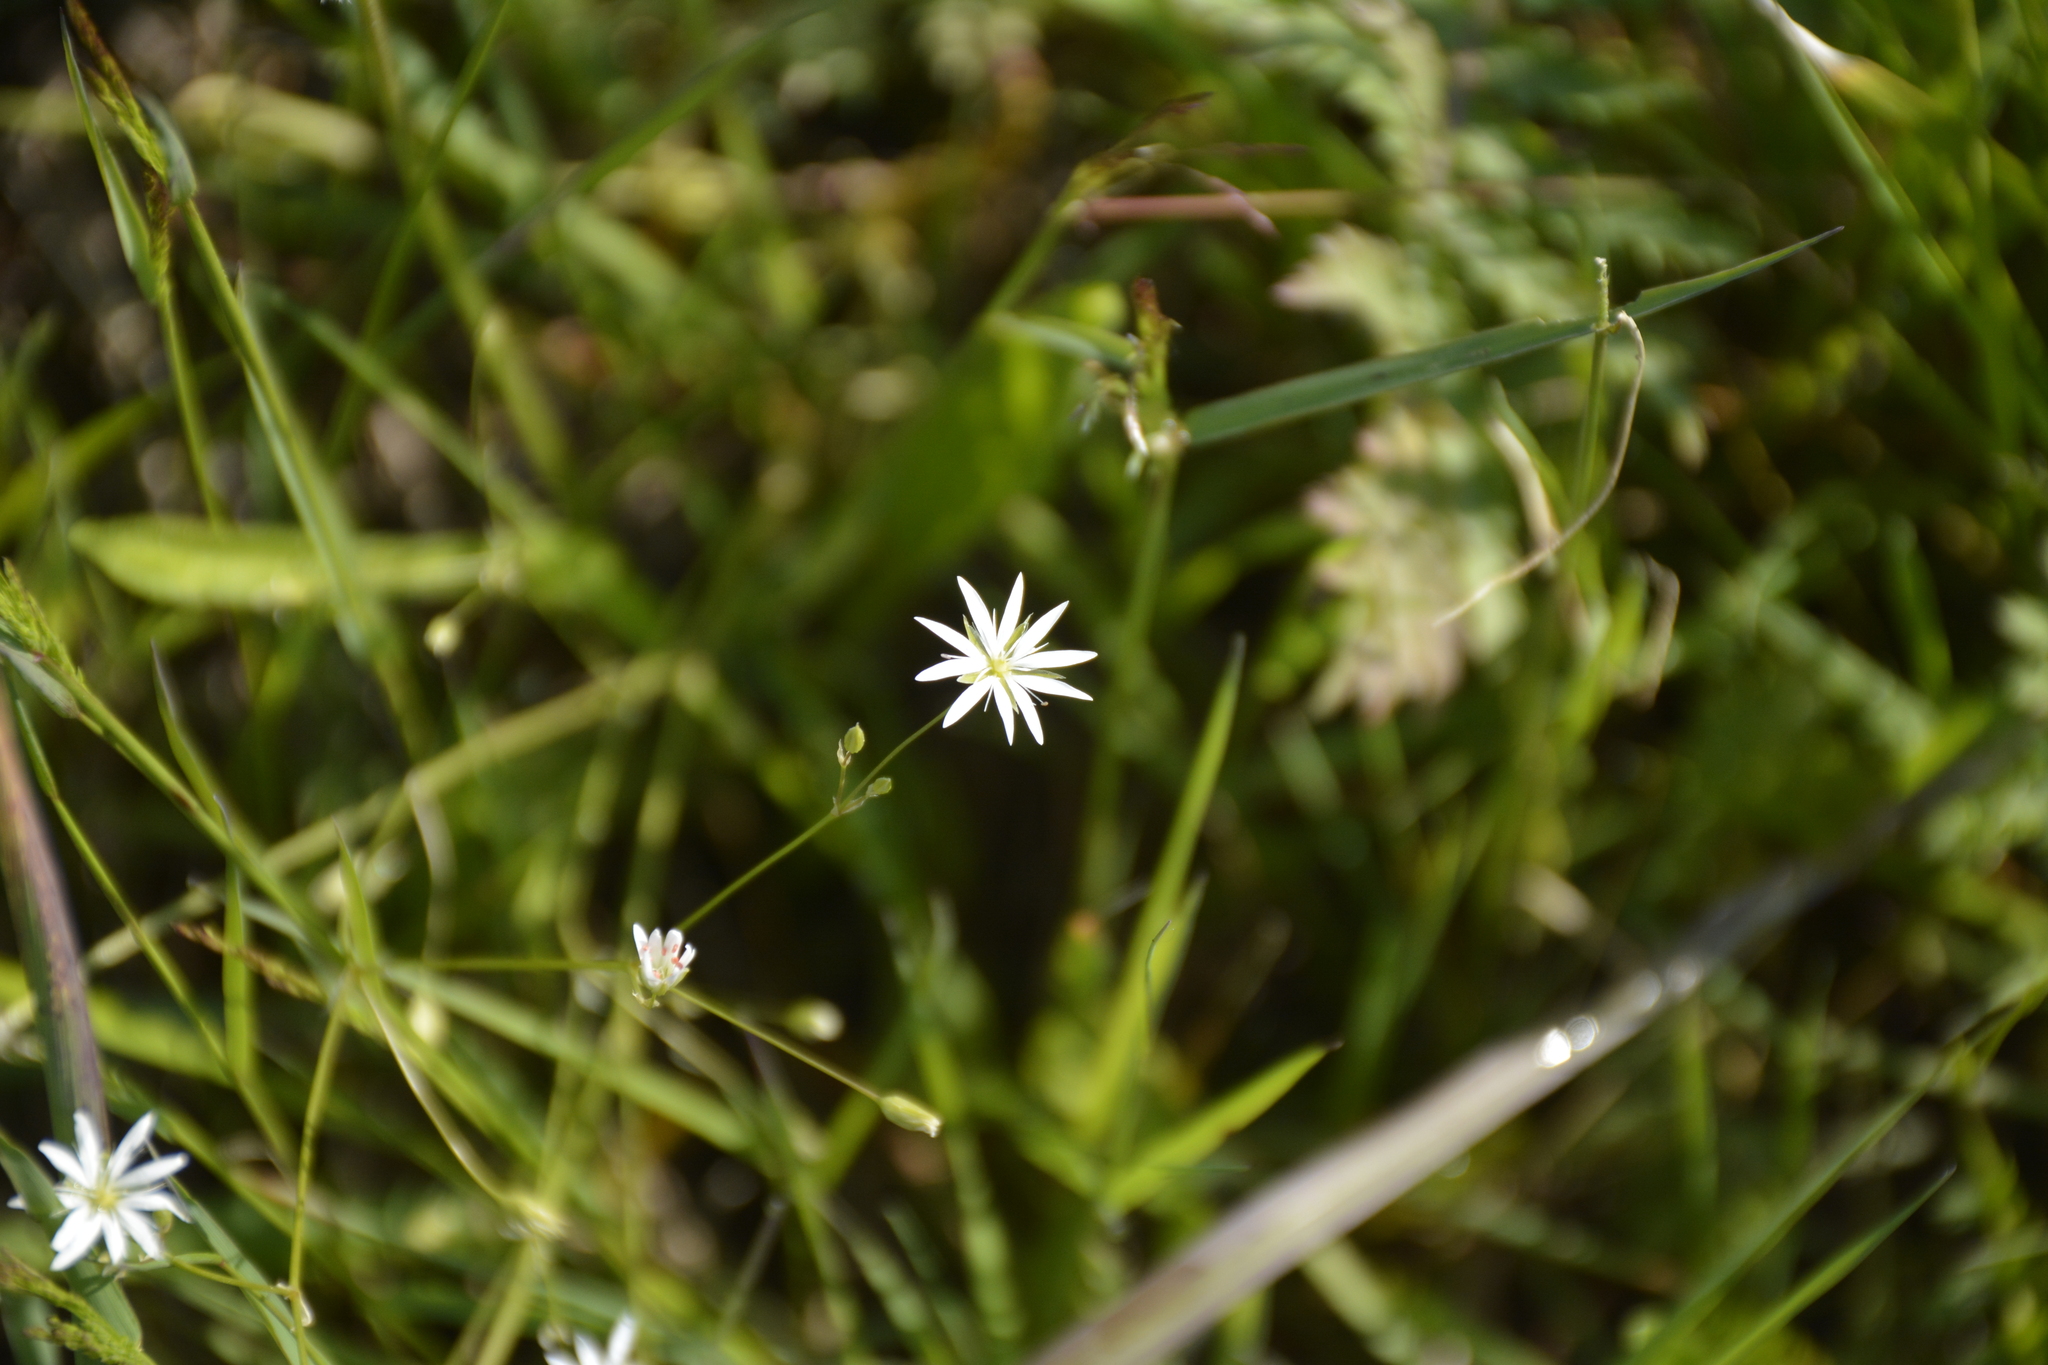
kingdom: Plantae
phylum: Tracheophyta
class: Magnoliopsida
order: Caryophyllales
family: Caryophyllaceae
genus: Stellaria
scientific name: Stellaria graminea
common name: Grass-like starwort
